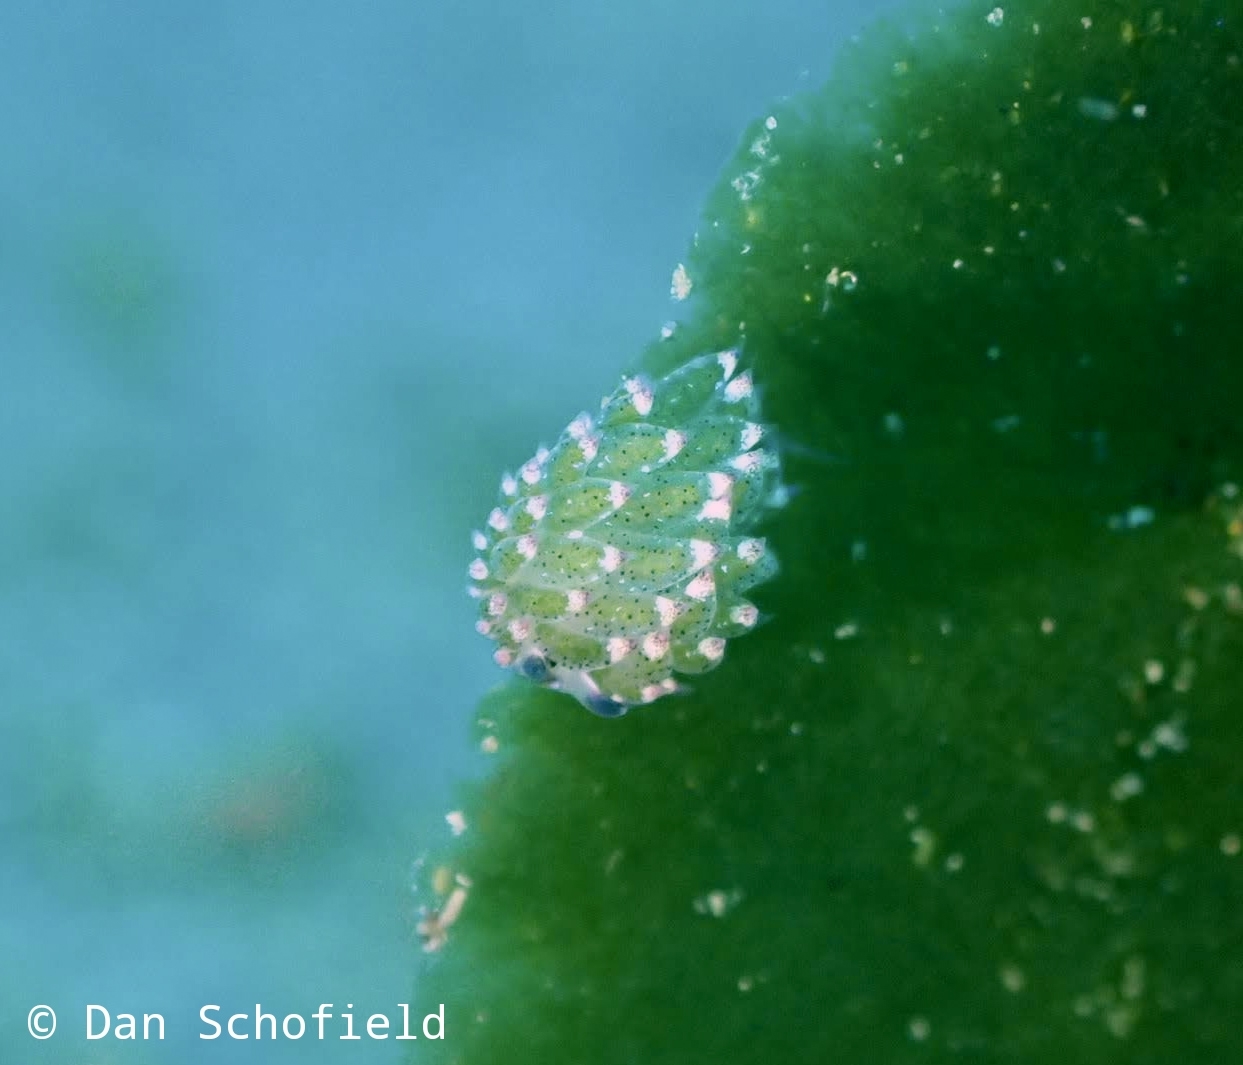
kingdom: Animalia
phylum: Mollusca
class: Gastropoda
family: Costasiellidae
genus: Costasiella
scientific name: Costasiella kuroshimae
